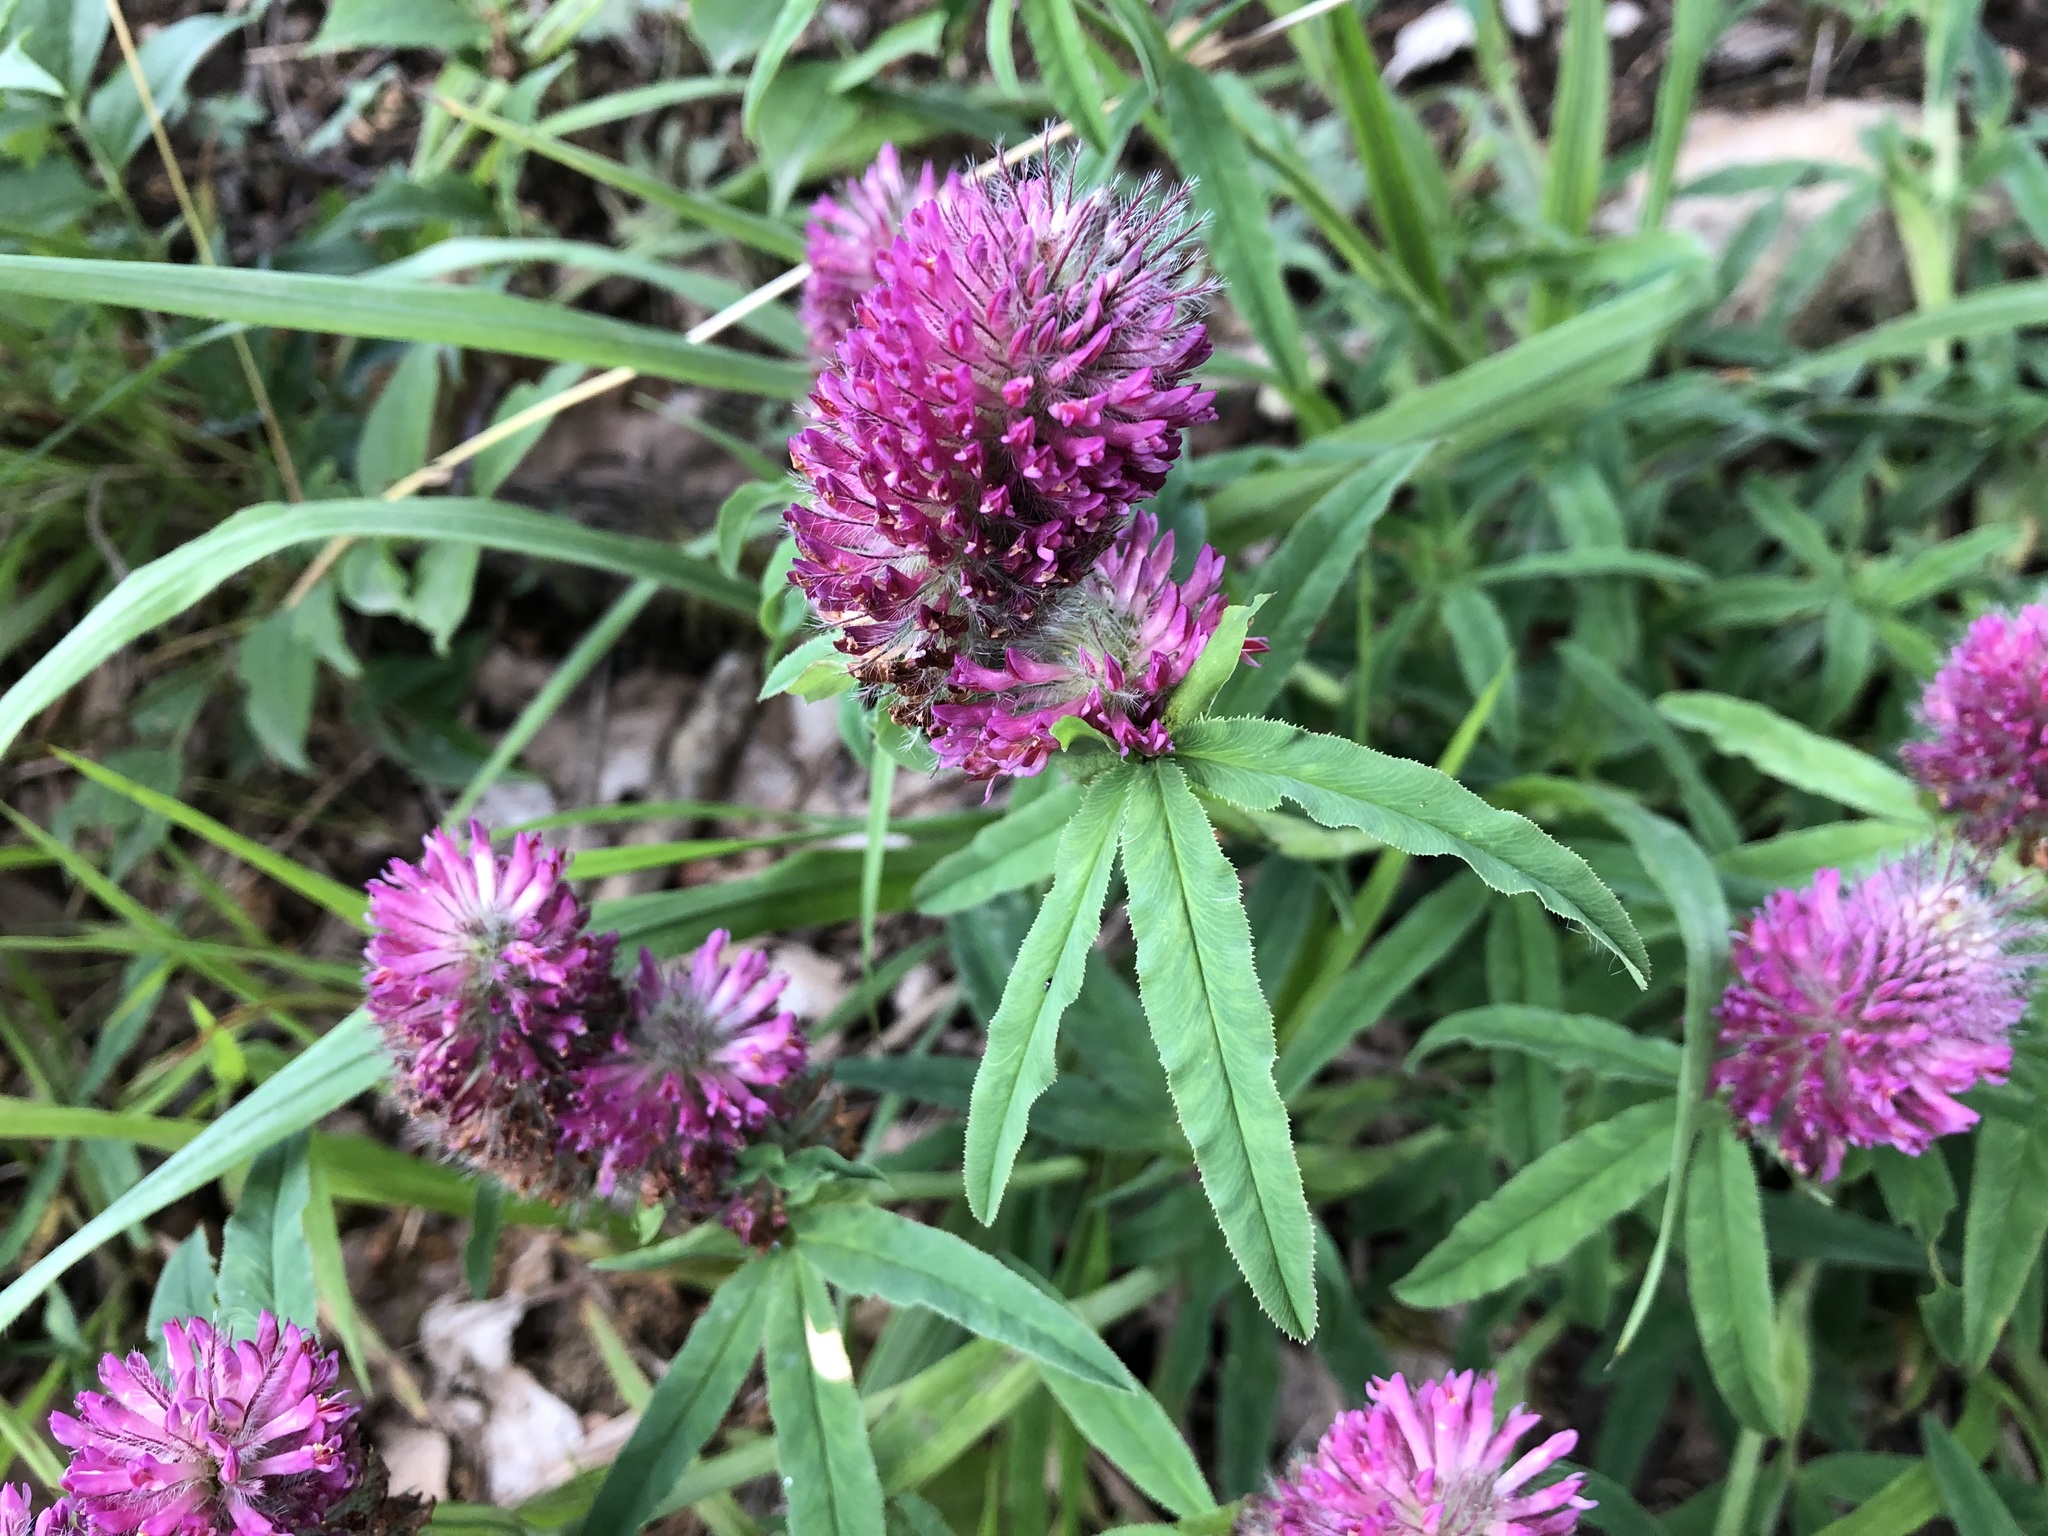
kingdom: Plantae
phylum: Tracheophyta
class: Magnoliopsida
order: Fabales
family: Fabaceae
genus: Trifolium
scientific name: Trifolium rubens
